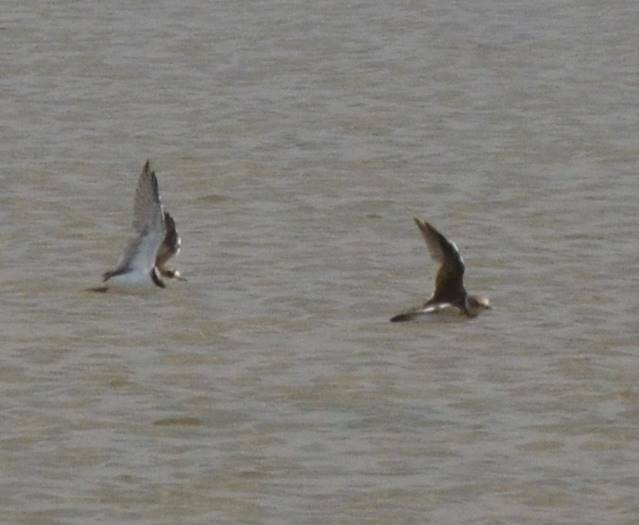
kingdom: Animalia
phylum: Chordata
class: Aves
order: Charadriiformes
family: Charadriidae
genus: Charadrius
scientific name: Charadrius hiaticula
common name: Common ringed plover
